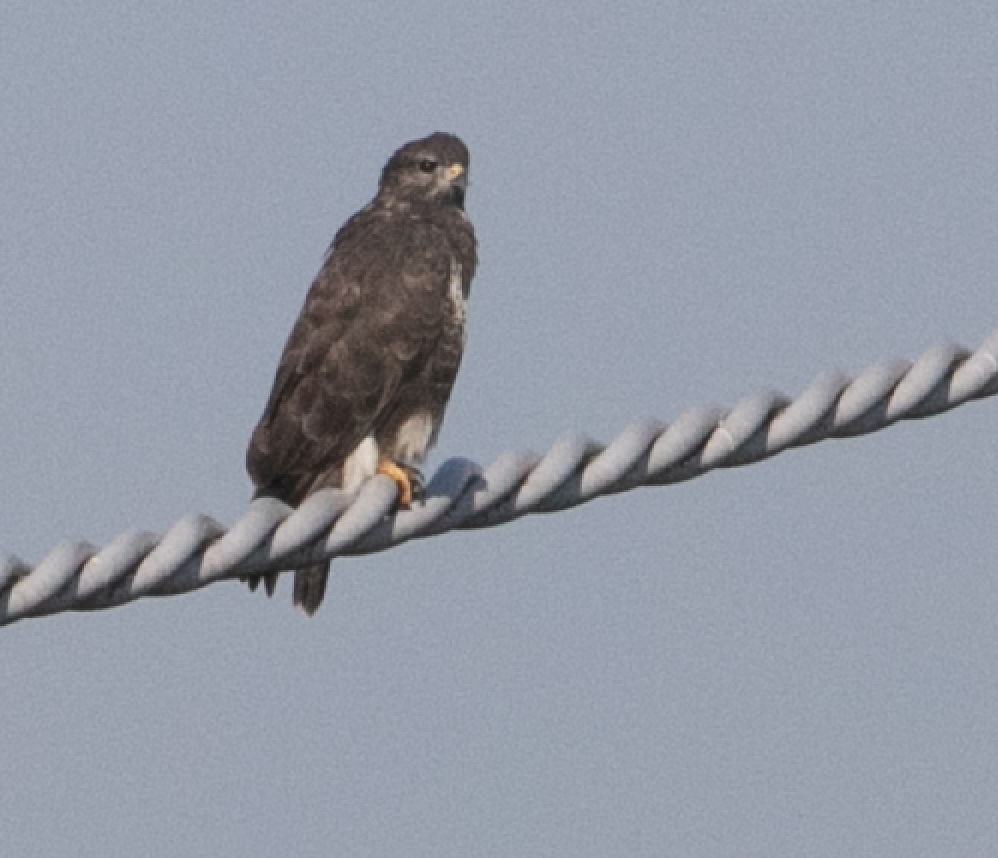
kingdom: Animalia
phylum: Chordata
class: Aves
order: Accipitriformes
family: Accipitridae
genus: Buteo
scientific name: Buteo buteo
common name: Common buzzard
